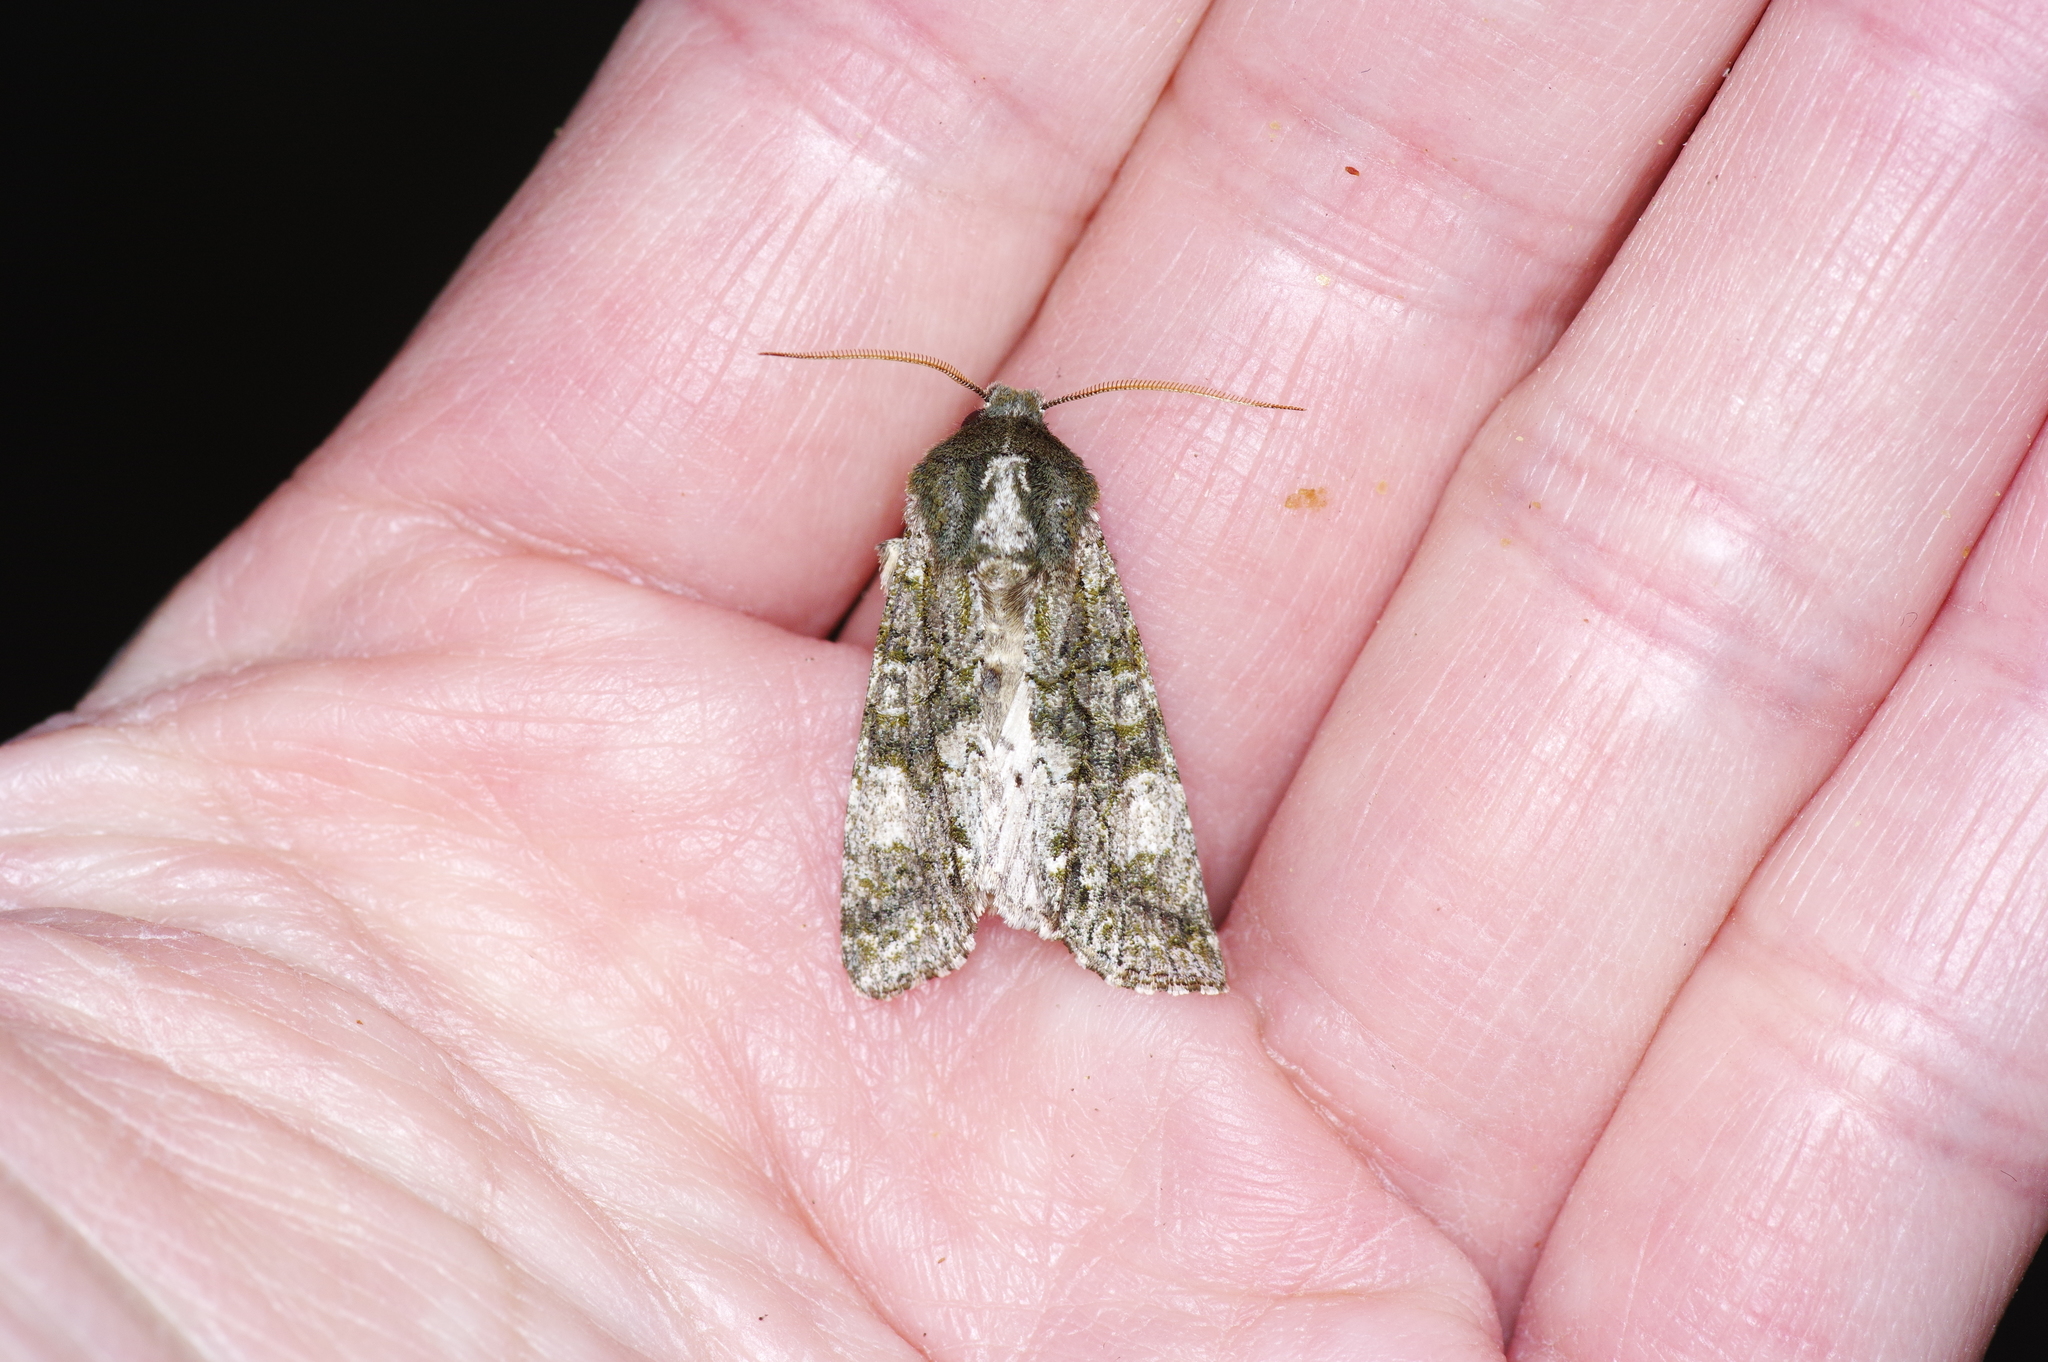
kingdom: Animalia
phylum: Arthropoda
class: Insecta
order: Lepidoptera
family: Noctuidae
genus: Psaphida
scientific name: Psaphida grotei
